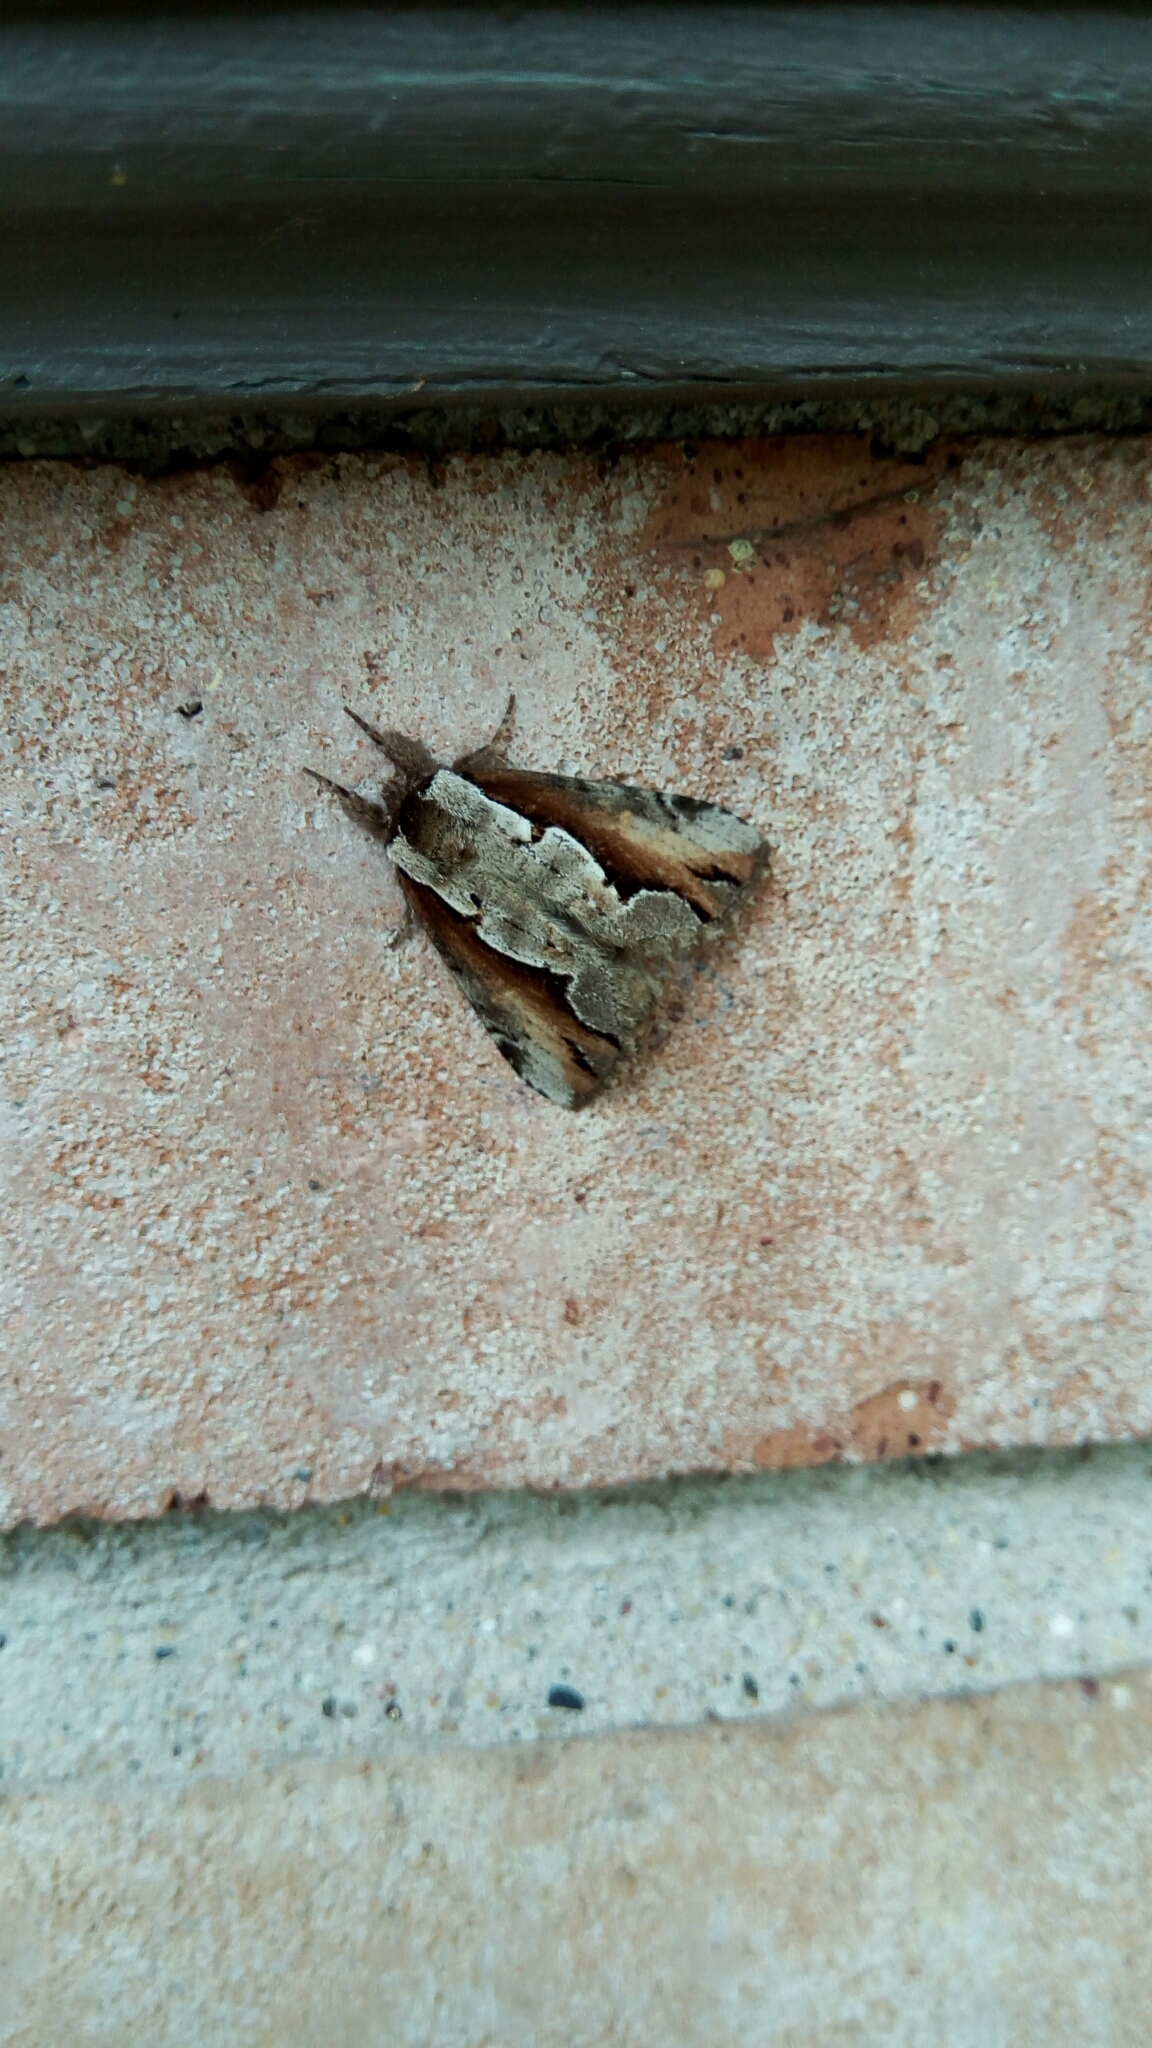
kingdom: Animalia
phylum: Arthropoda
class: Insecta
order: Lepidoptera
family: Notodontidae
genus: Nerice
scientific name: Nerice bidentata
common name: Double-toothed prominent
